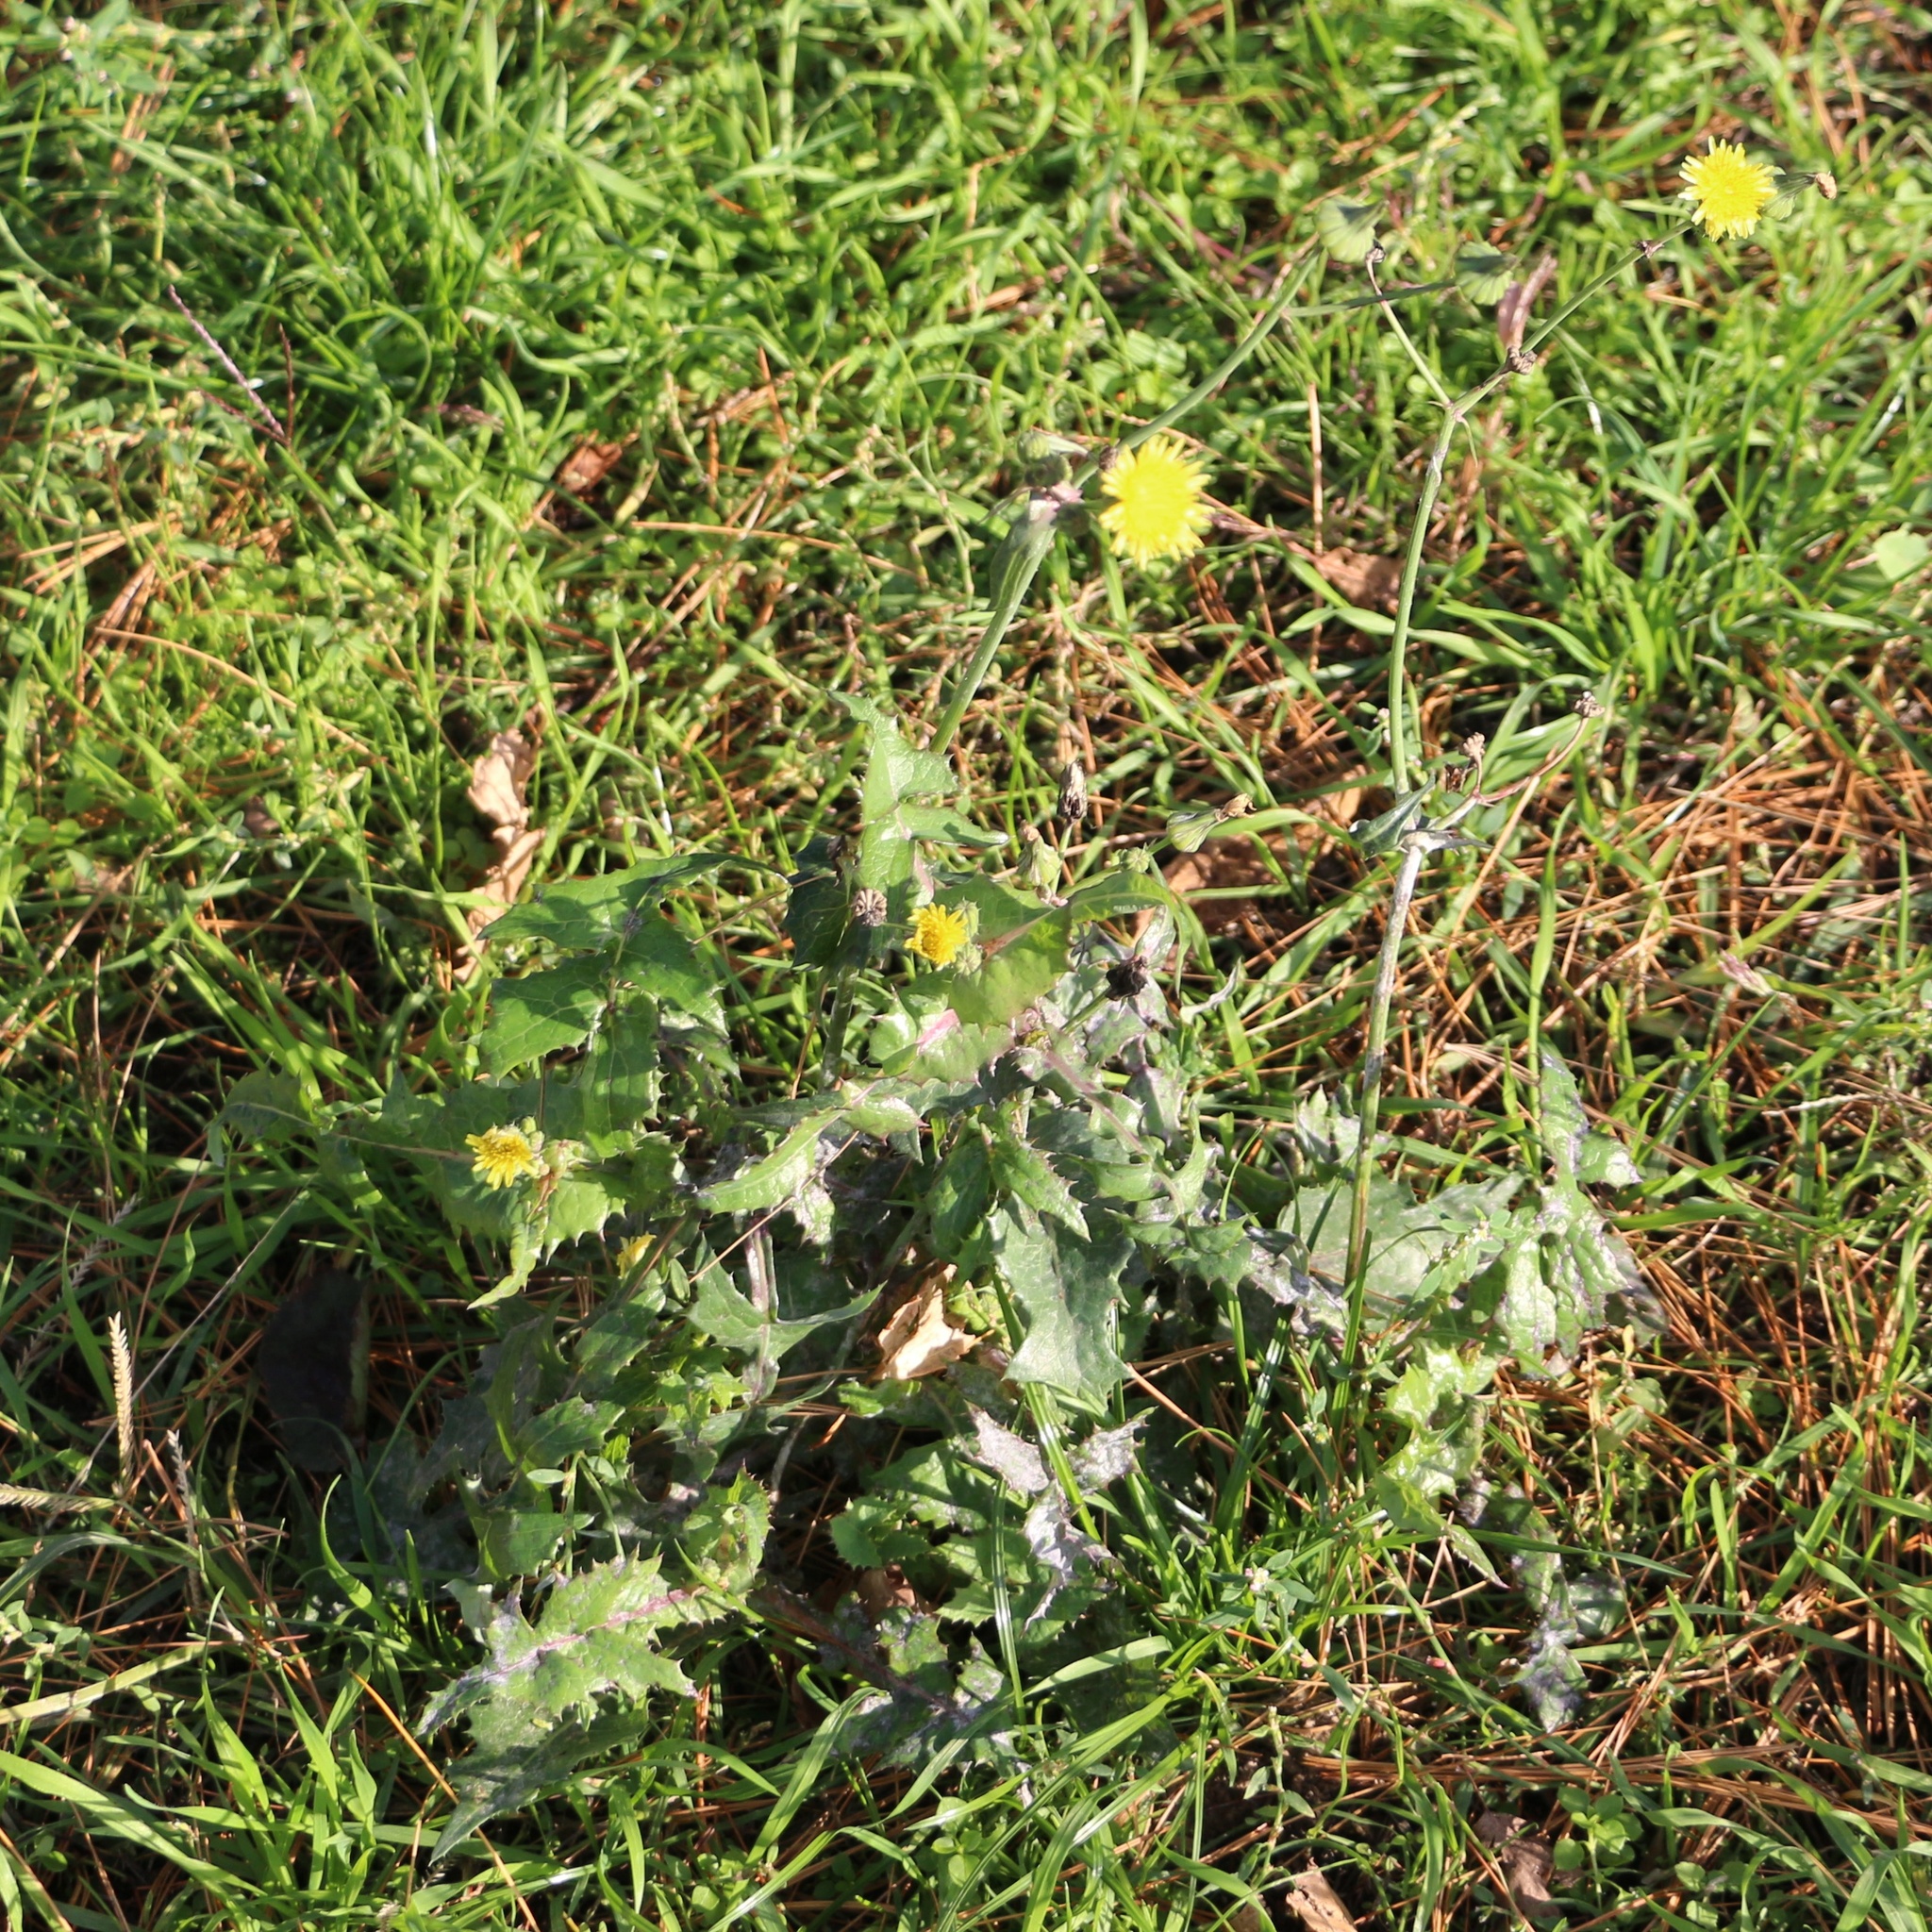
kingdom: Plantae
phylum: Tracheophyta
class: Magnoliopsida
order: Asterales
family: Asteraceae
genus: Sonchus
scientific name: Sonchus oleraceus
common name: Common sowthistle
